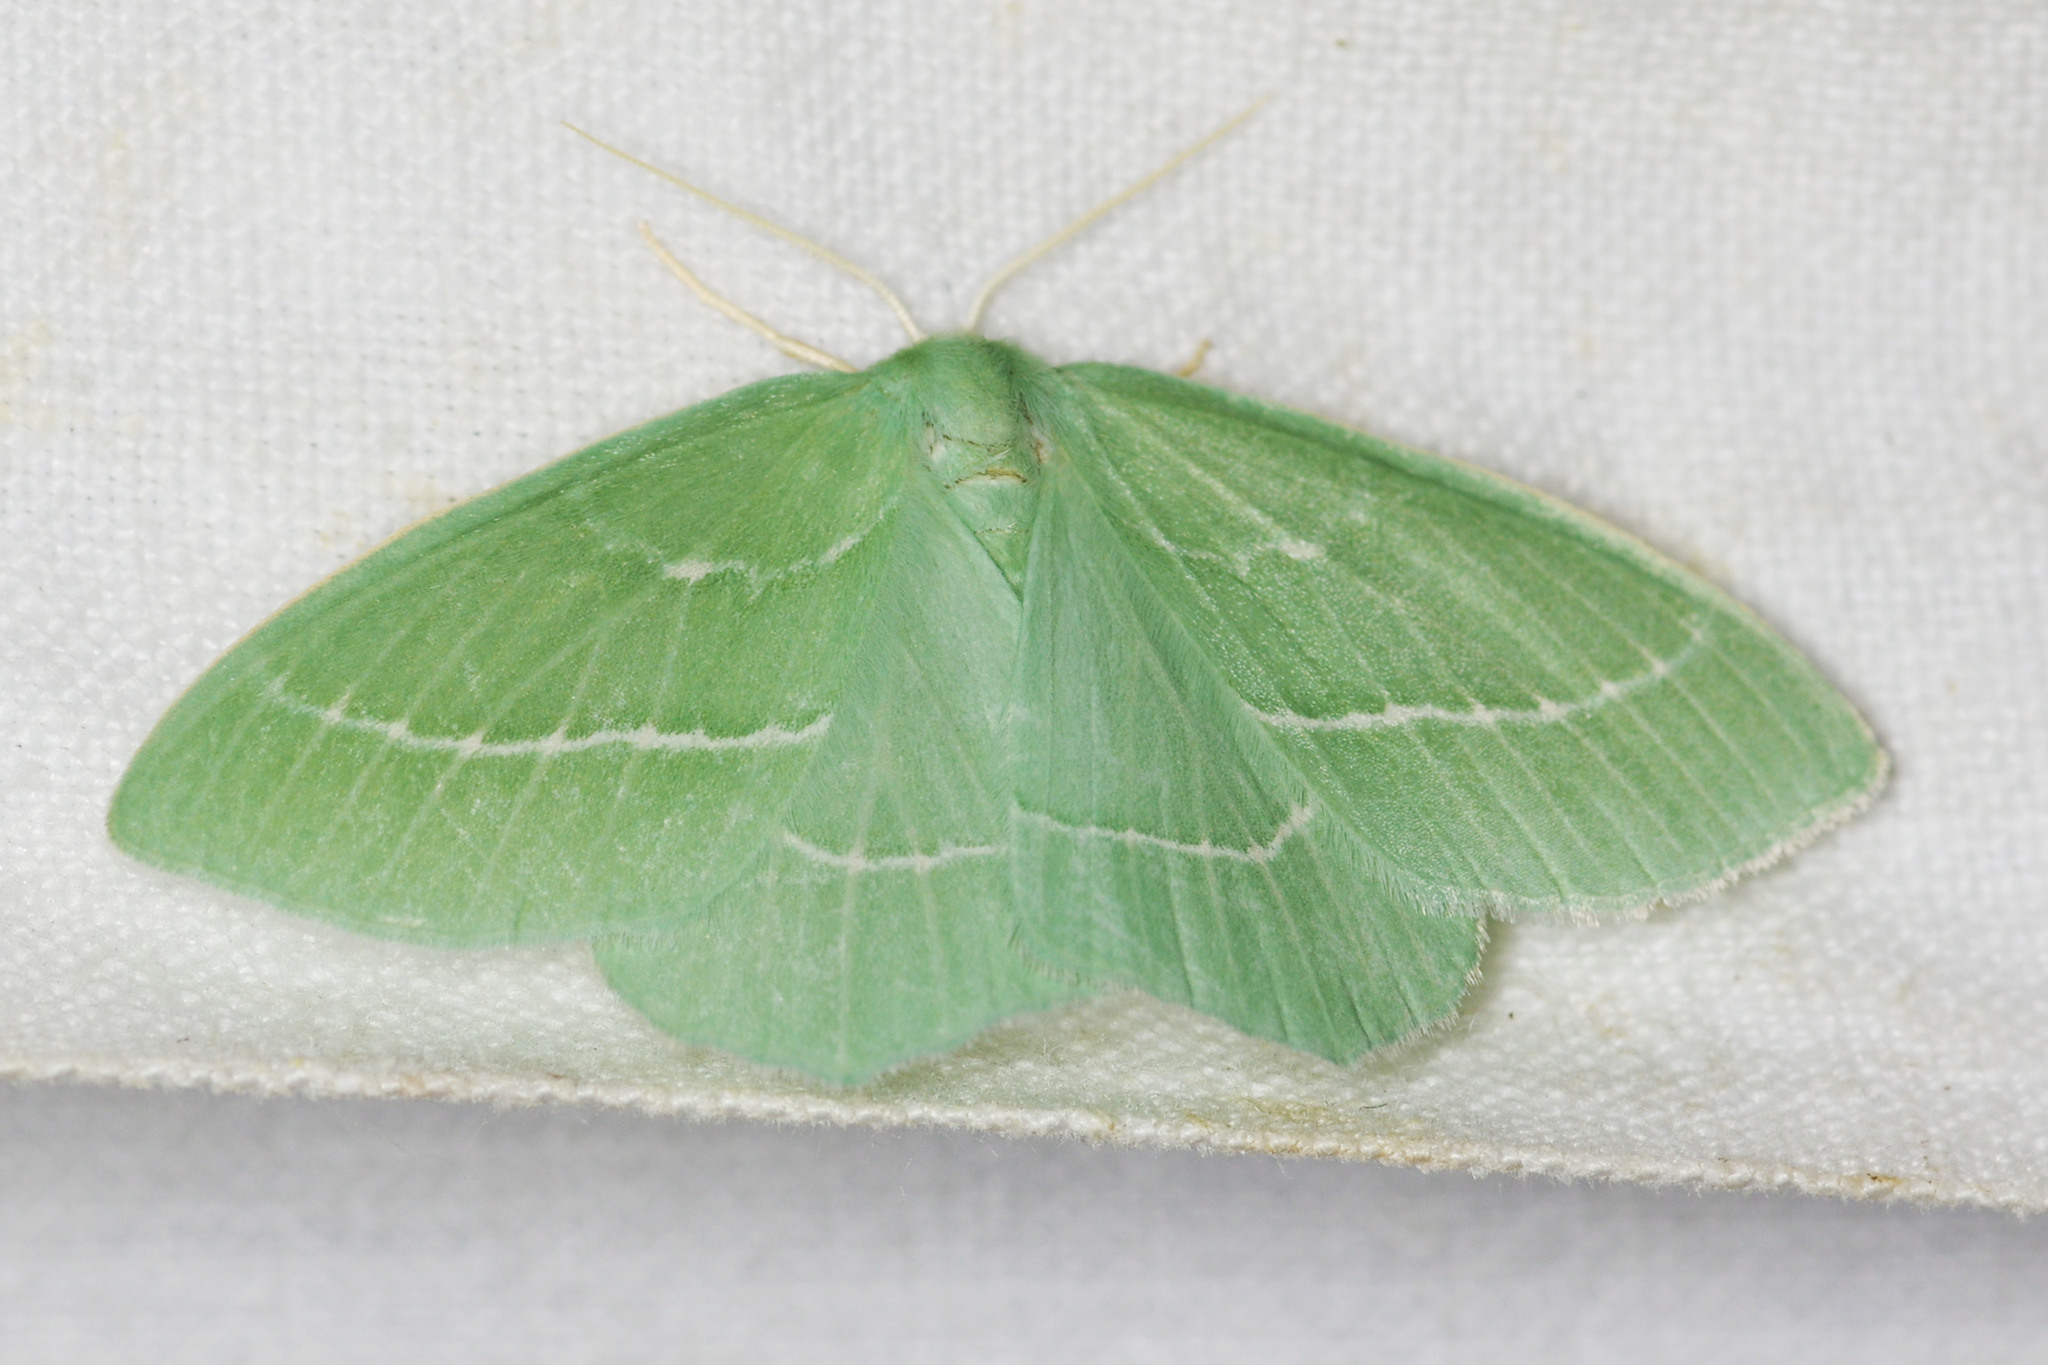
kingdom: Animalia
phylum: Arthropoda
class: Insecta
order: Lepidoptera
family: Geometridae
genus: Hemistola
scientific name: Hemistola chrysoprasaria
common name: Small emerald
